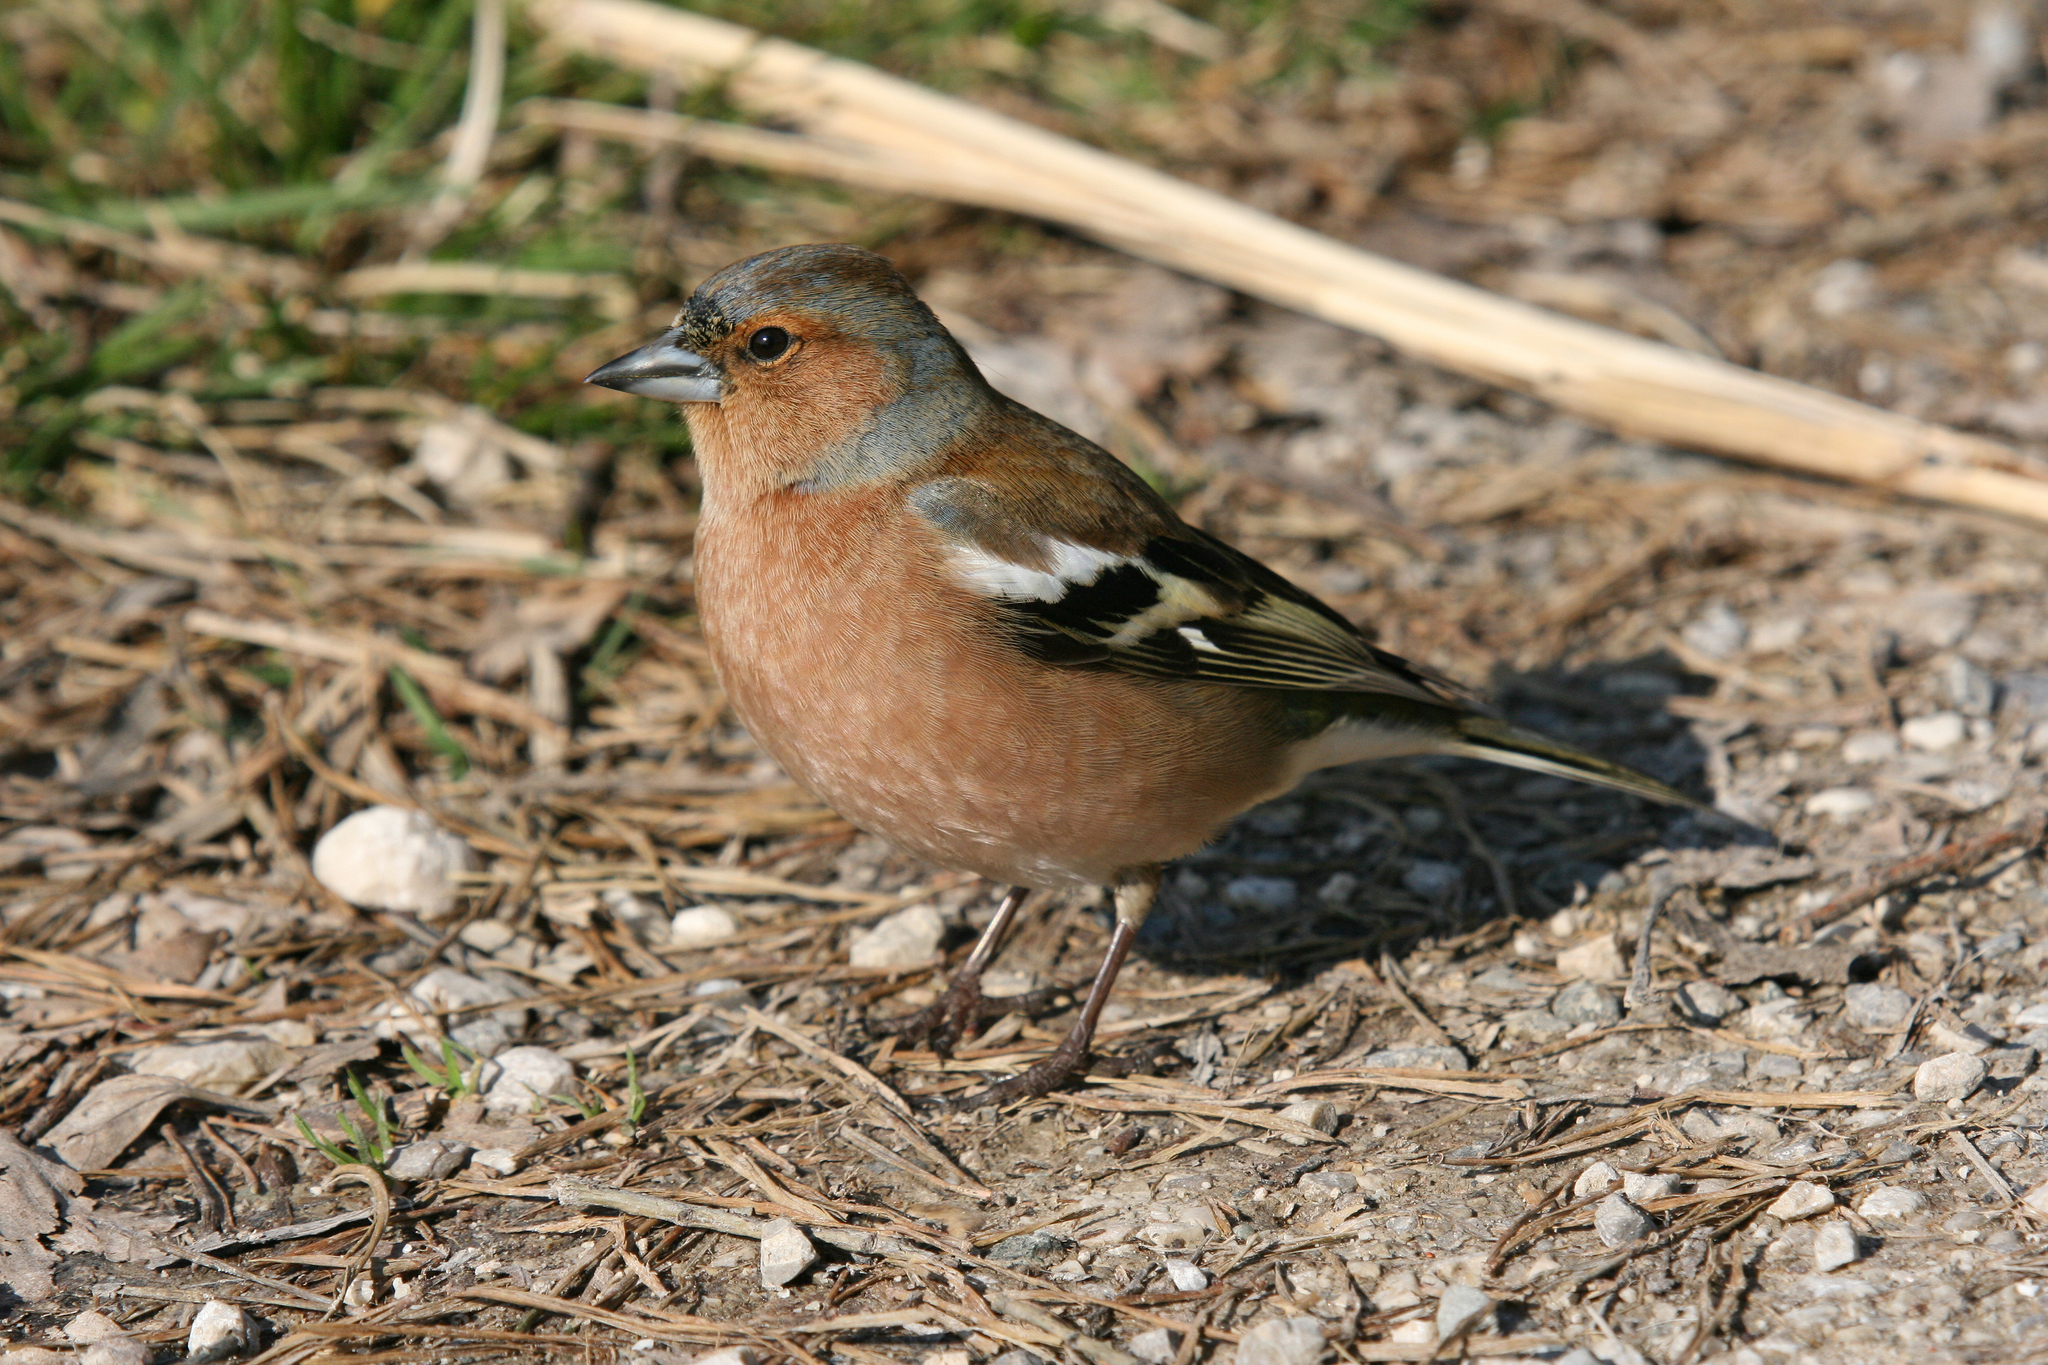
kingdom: Animalia
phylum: Chordata
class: Aves
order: Passeriformes
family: Fringillidae
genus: Fringilla
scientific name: Fringilla coelebs
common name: Common chaffinch
